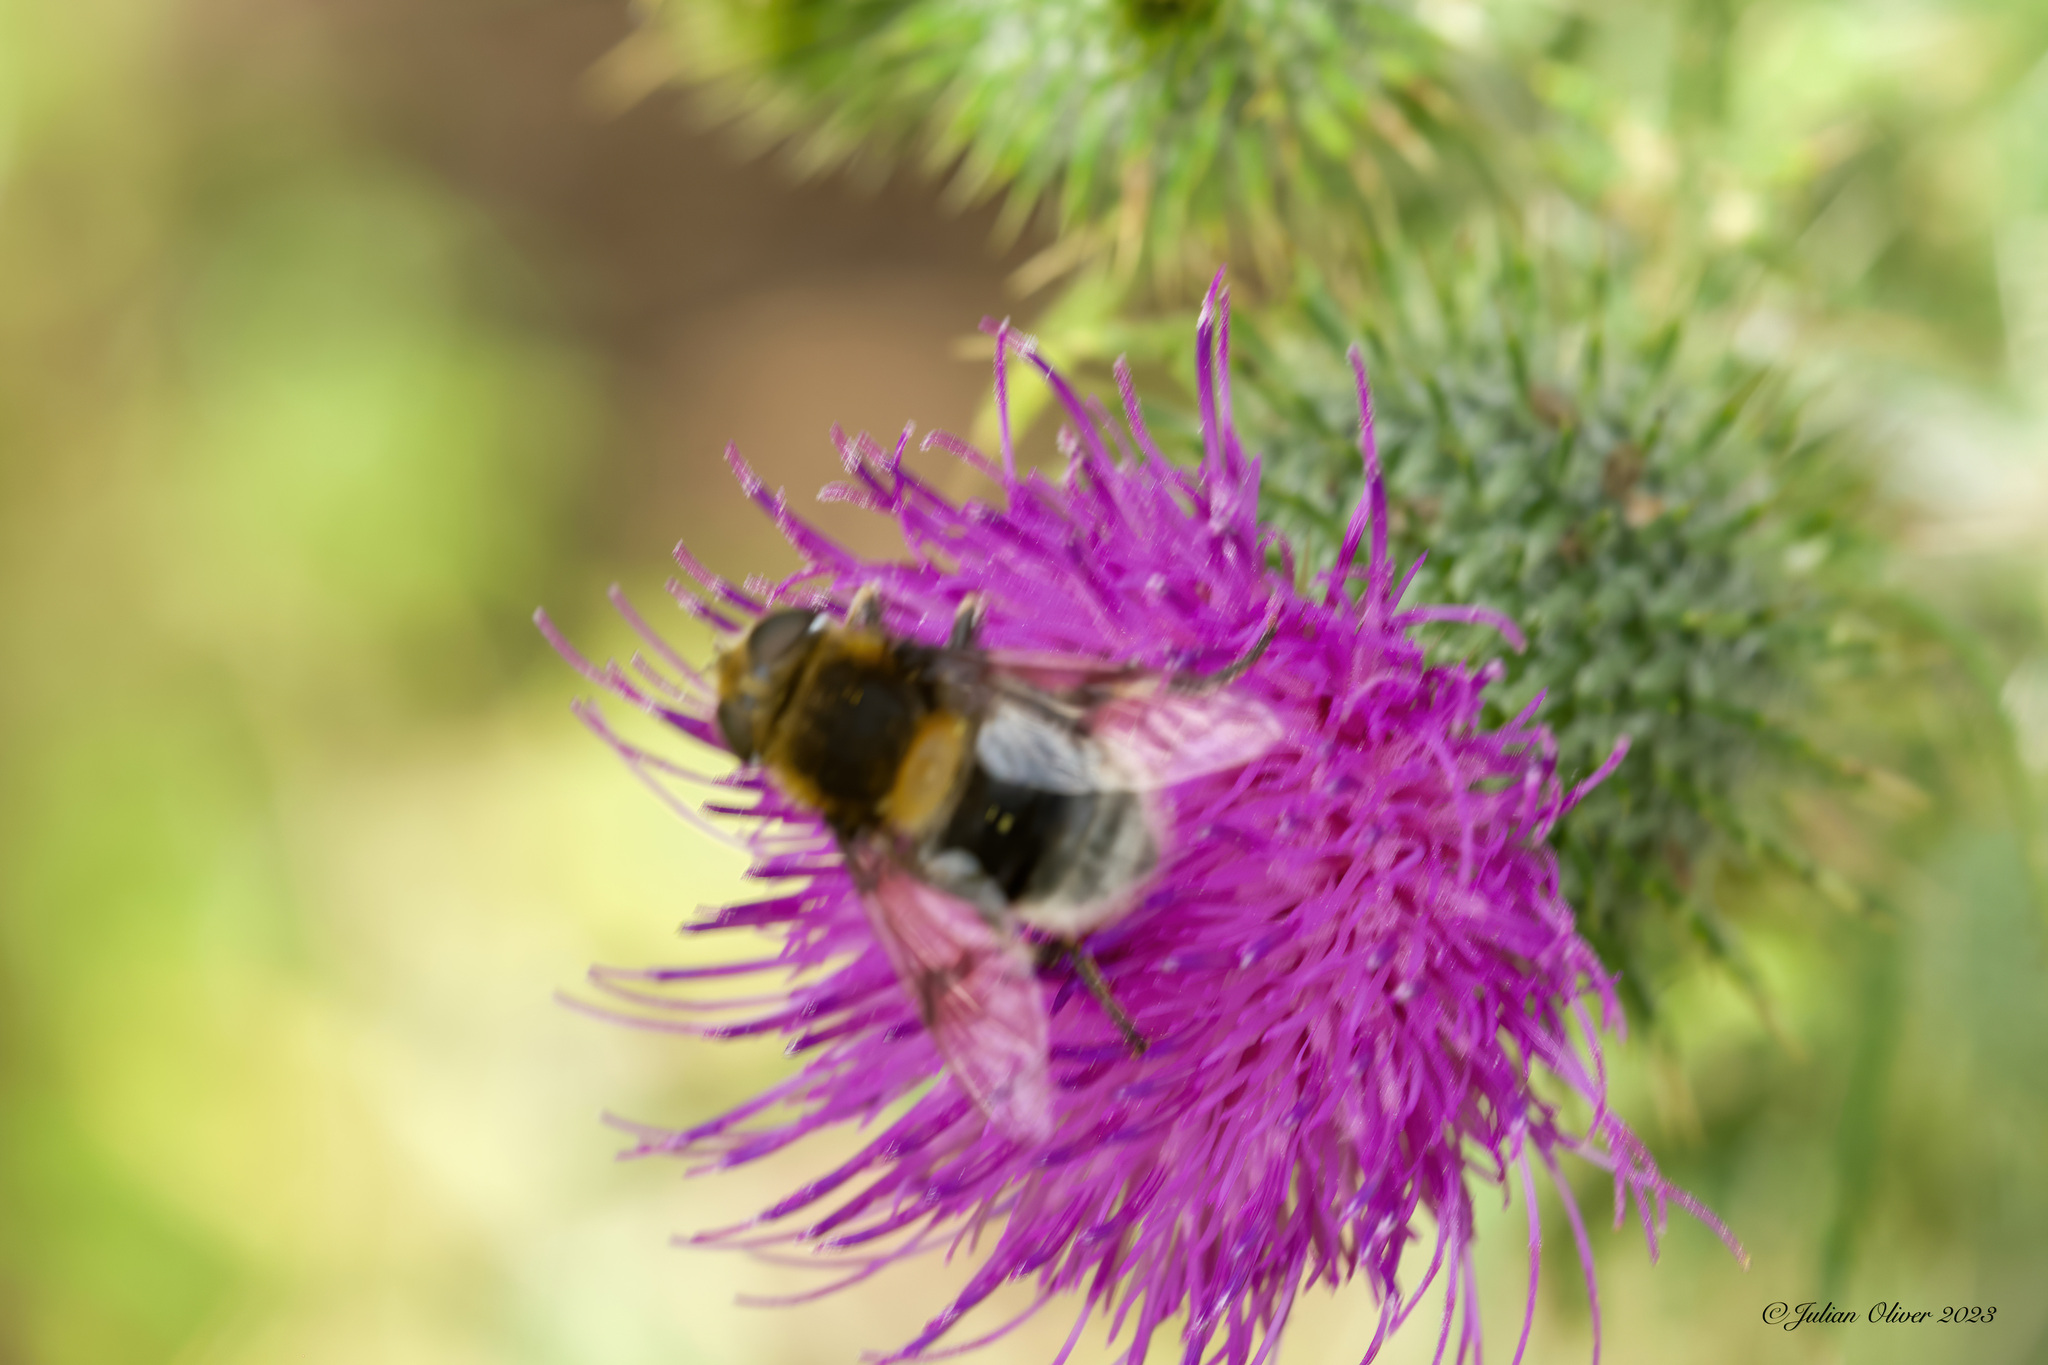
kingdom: Animalia
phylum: Arthropoda
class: Insecta
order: Diptera
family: Syrphidae
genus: Eristalis
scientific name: Eristalis intricaria
